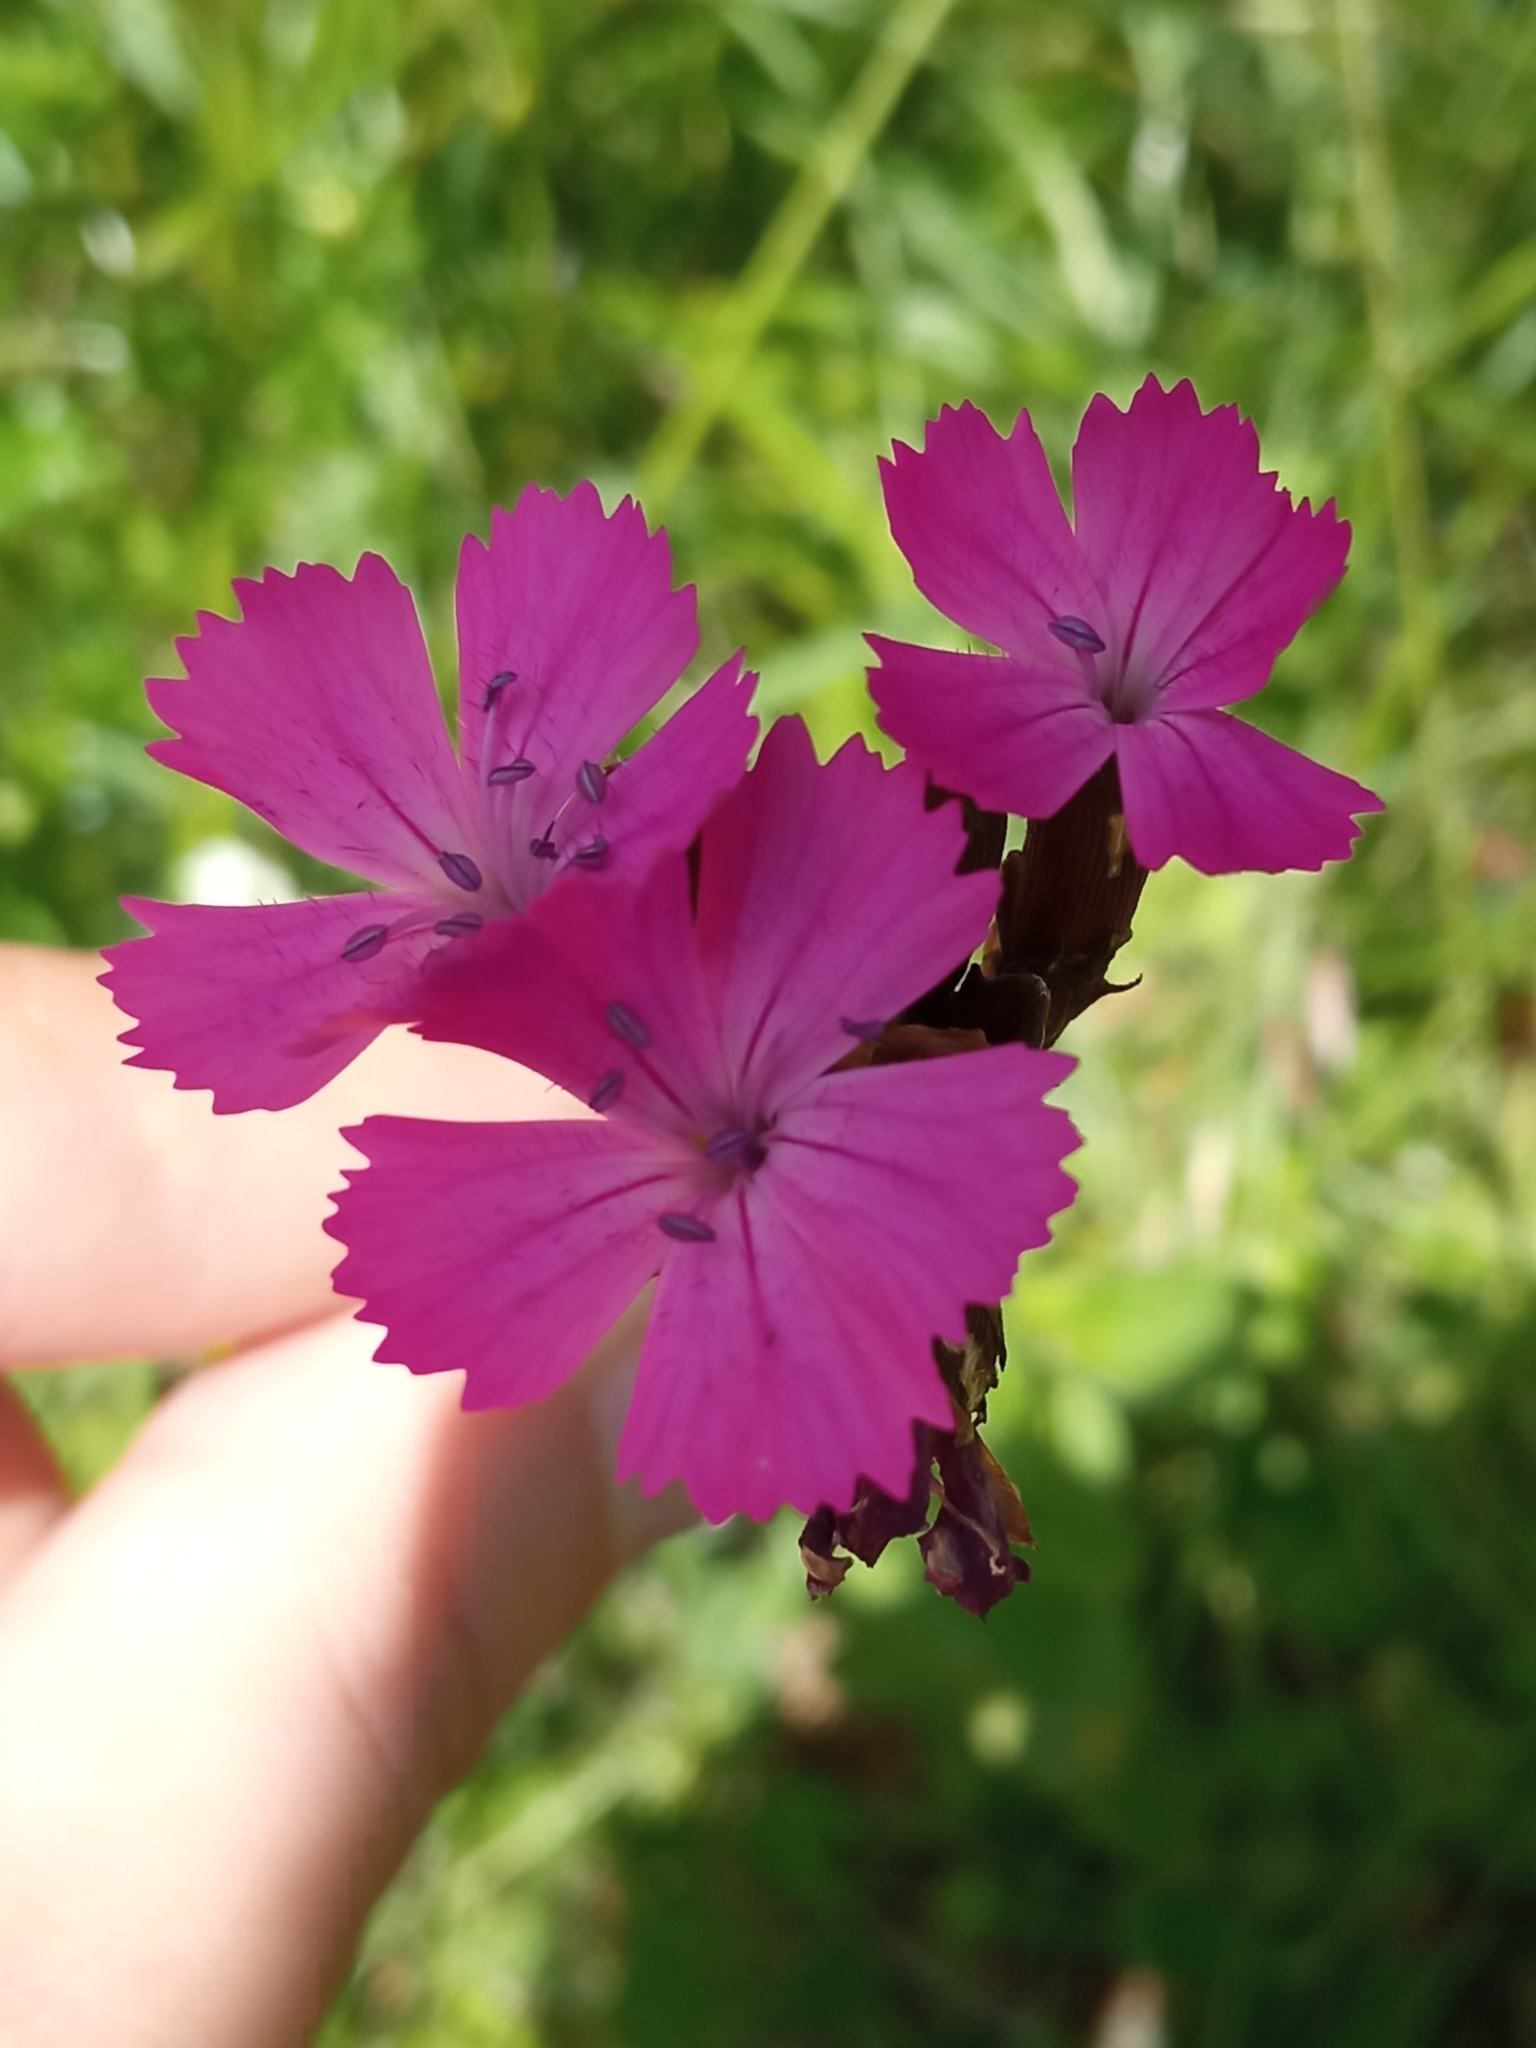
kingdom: Plantae
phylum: Tracheophyta
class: Magnoliopsida
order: Caryophyllales
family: Caryophyllaceae
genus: Dianthus
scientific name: Dianthus carthusianorum
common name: Carthusian pink
